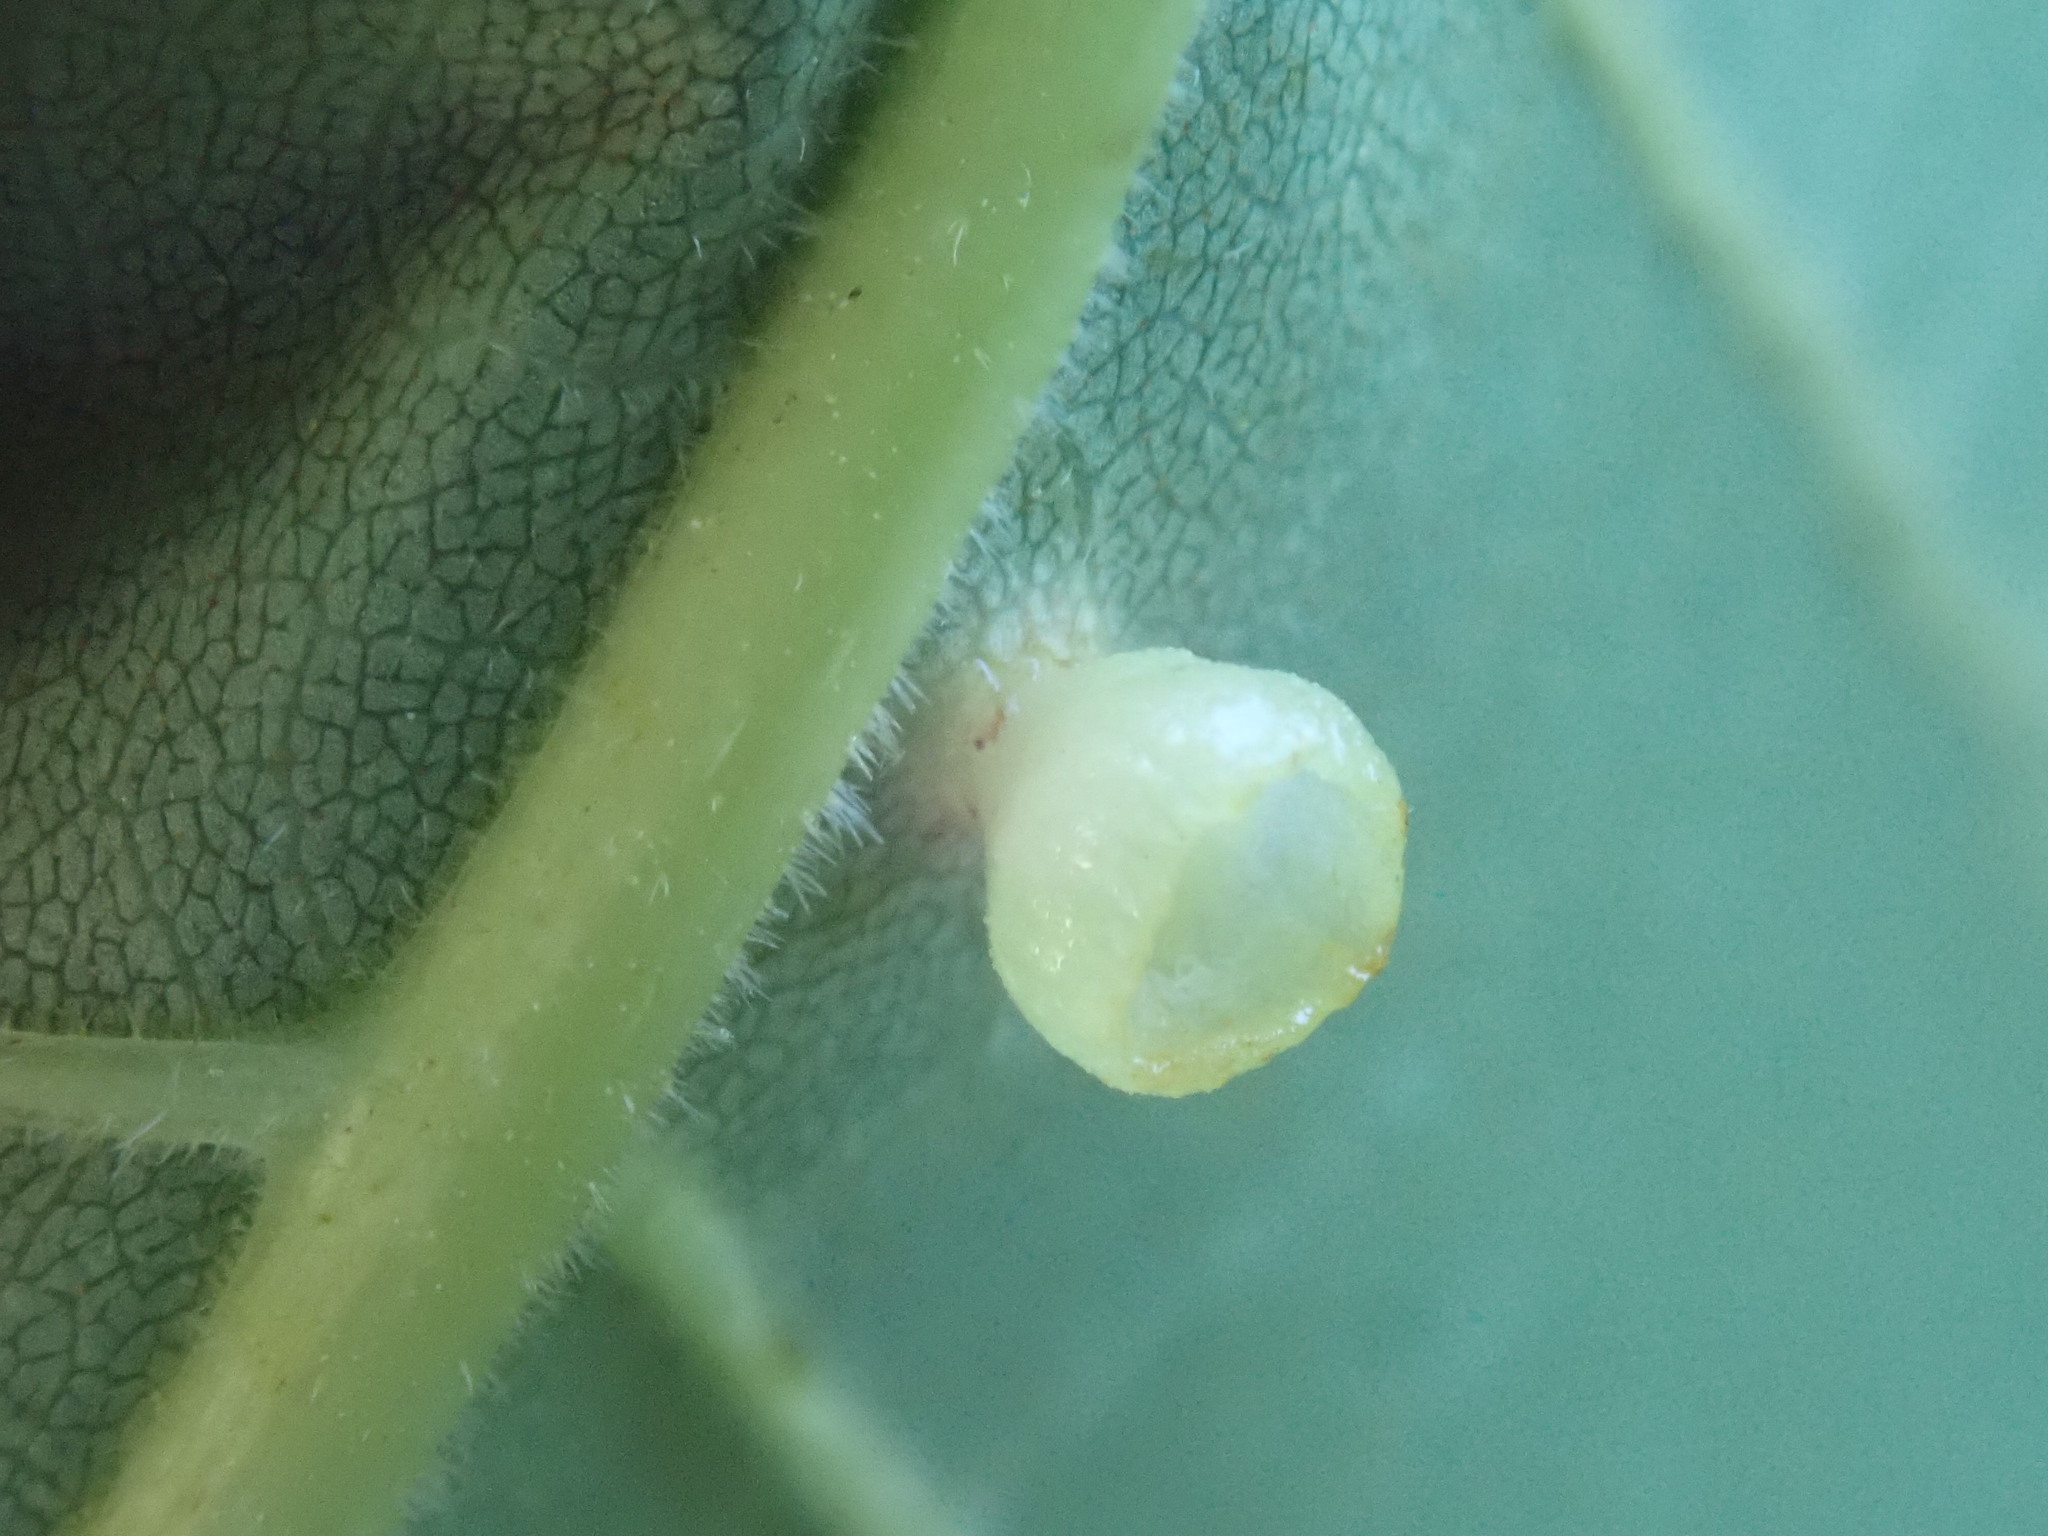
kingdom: Animalia
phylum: Arthropoda
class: Insecta
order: Diptera
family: Cecidomyiidae
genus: Caryomyia
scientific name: Caryomyia flaticrustum
